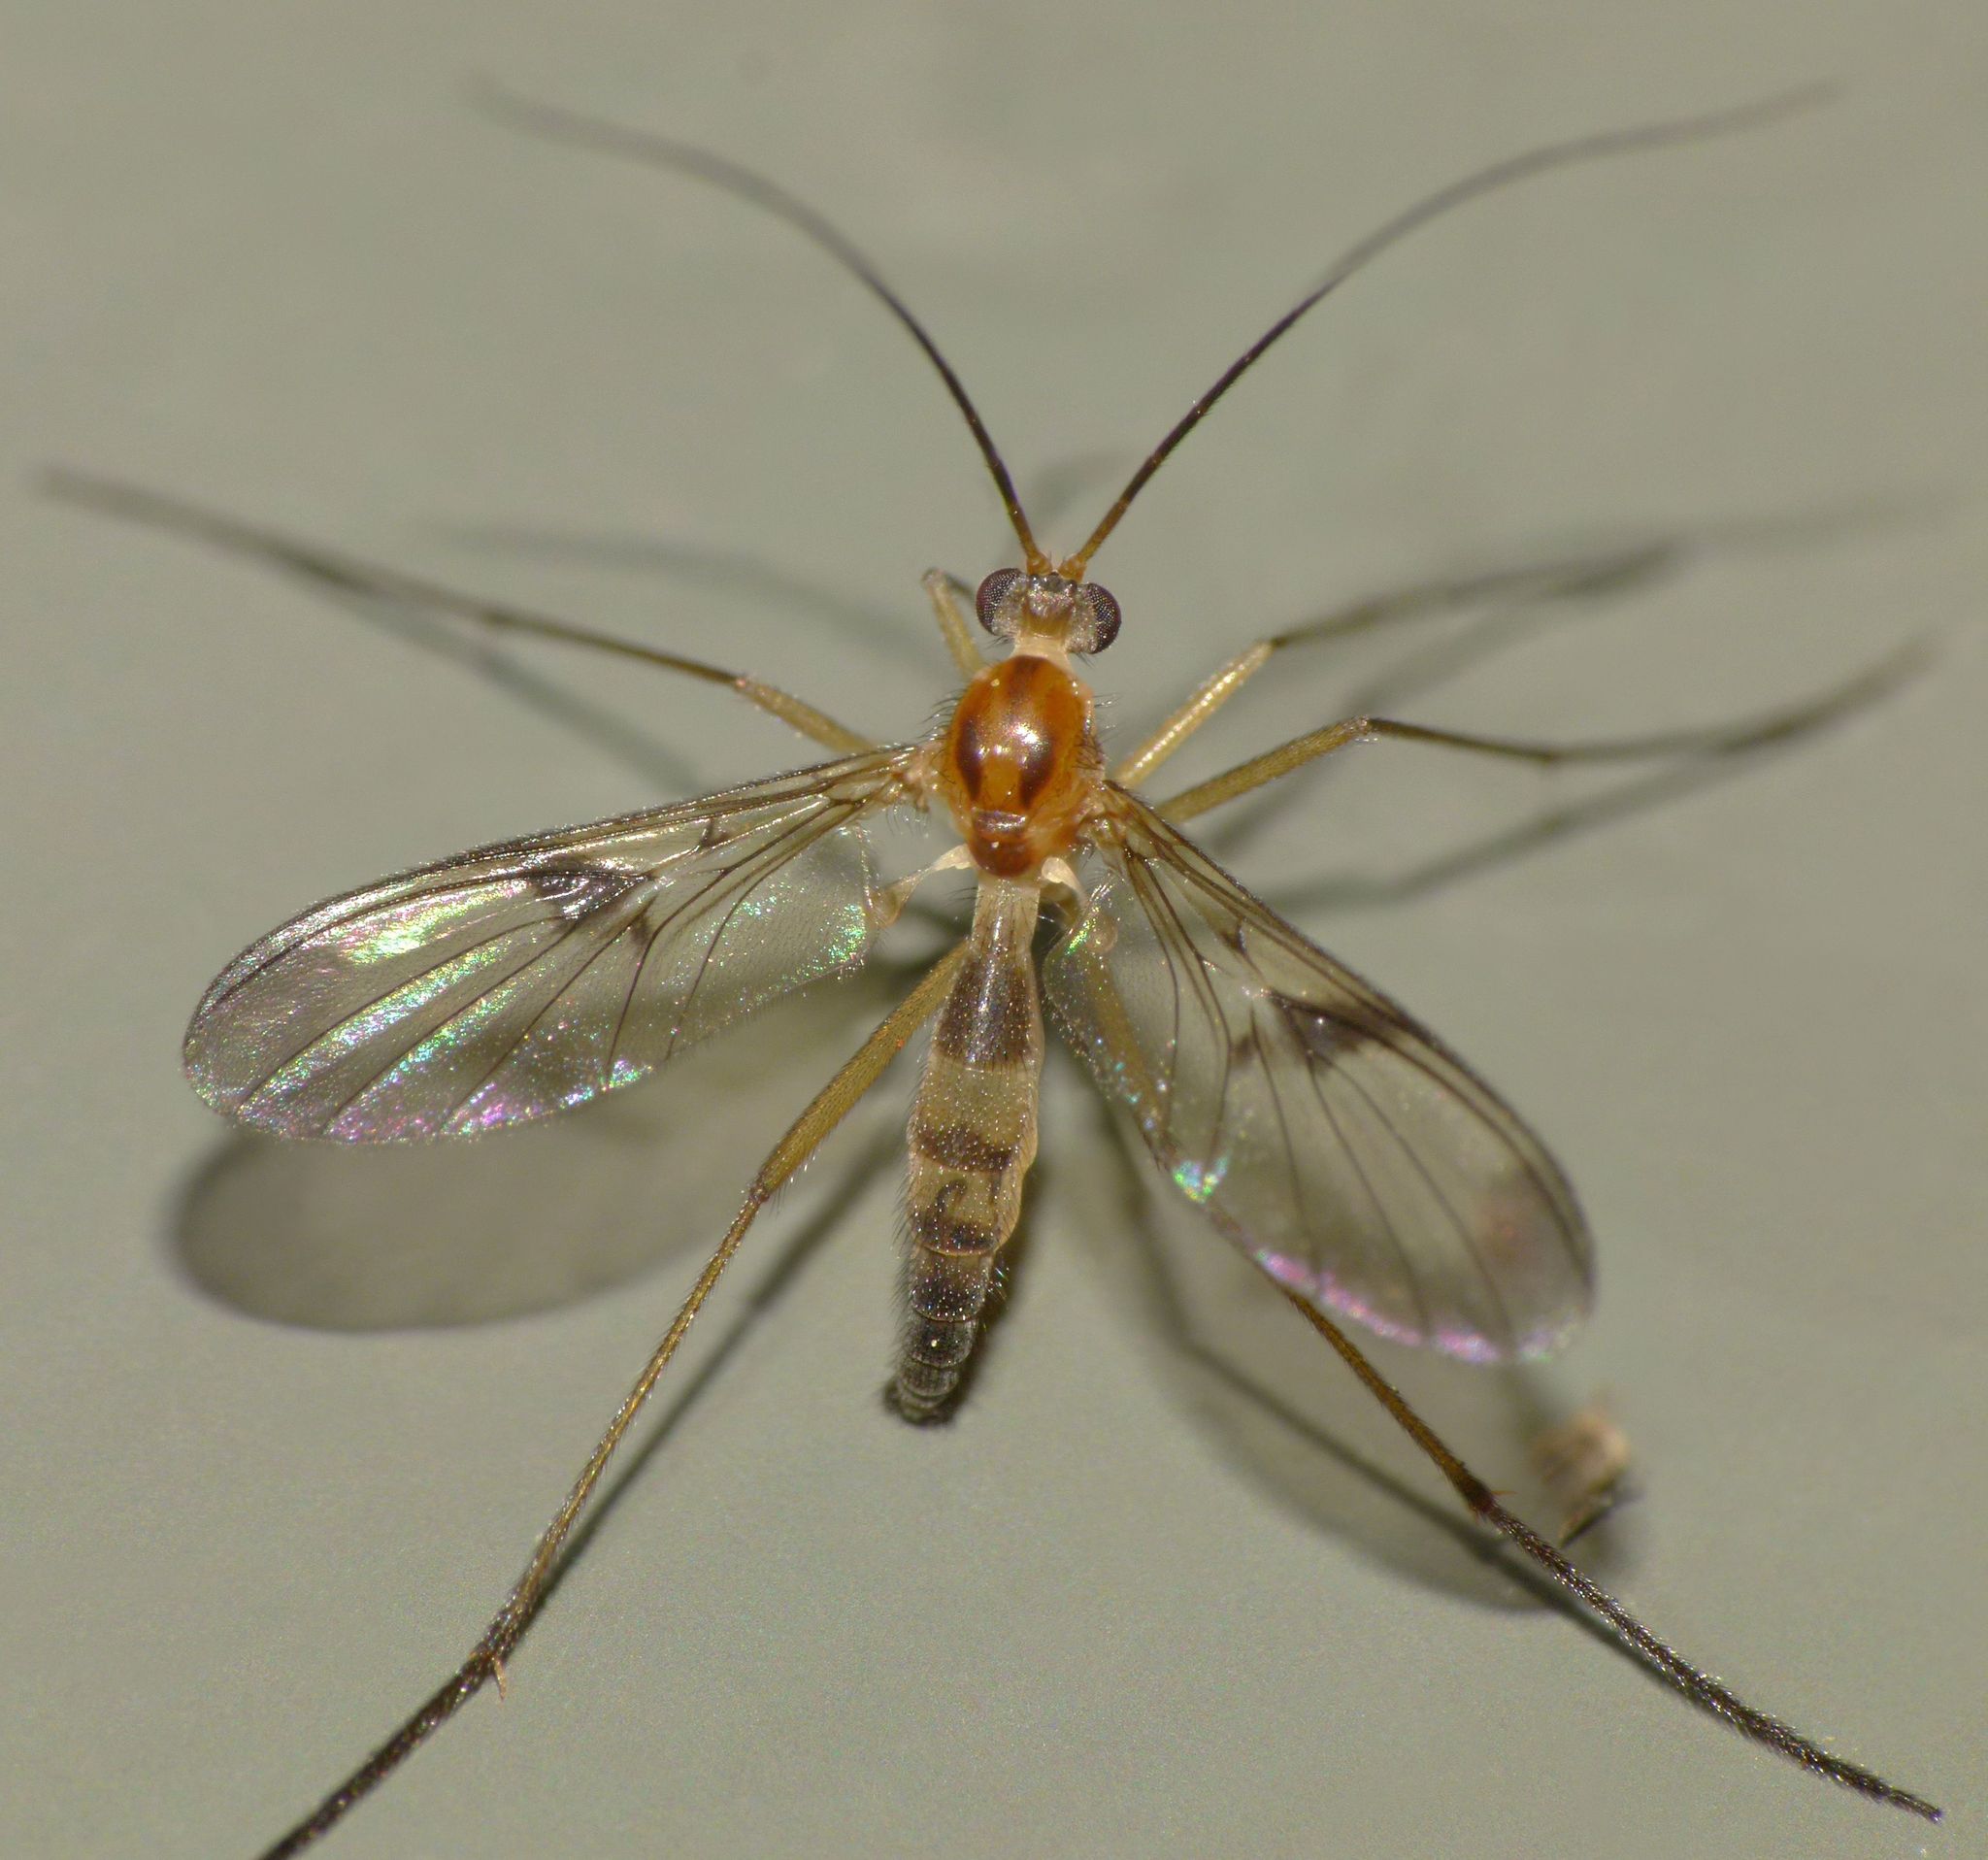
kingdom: Animalia
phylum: Arthropoda
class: Insecta
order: Diptera
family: Keroplatidae
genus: Macrocera
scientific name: Macrocera scoparia
